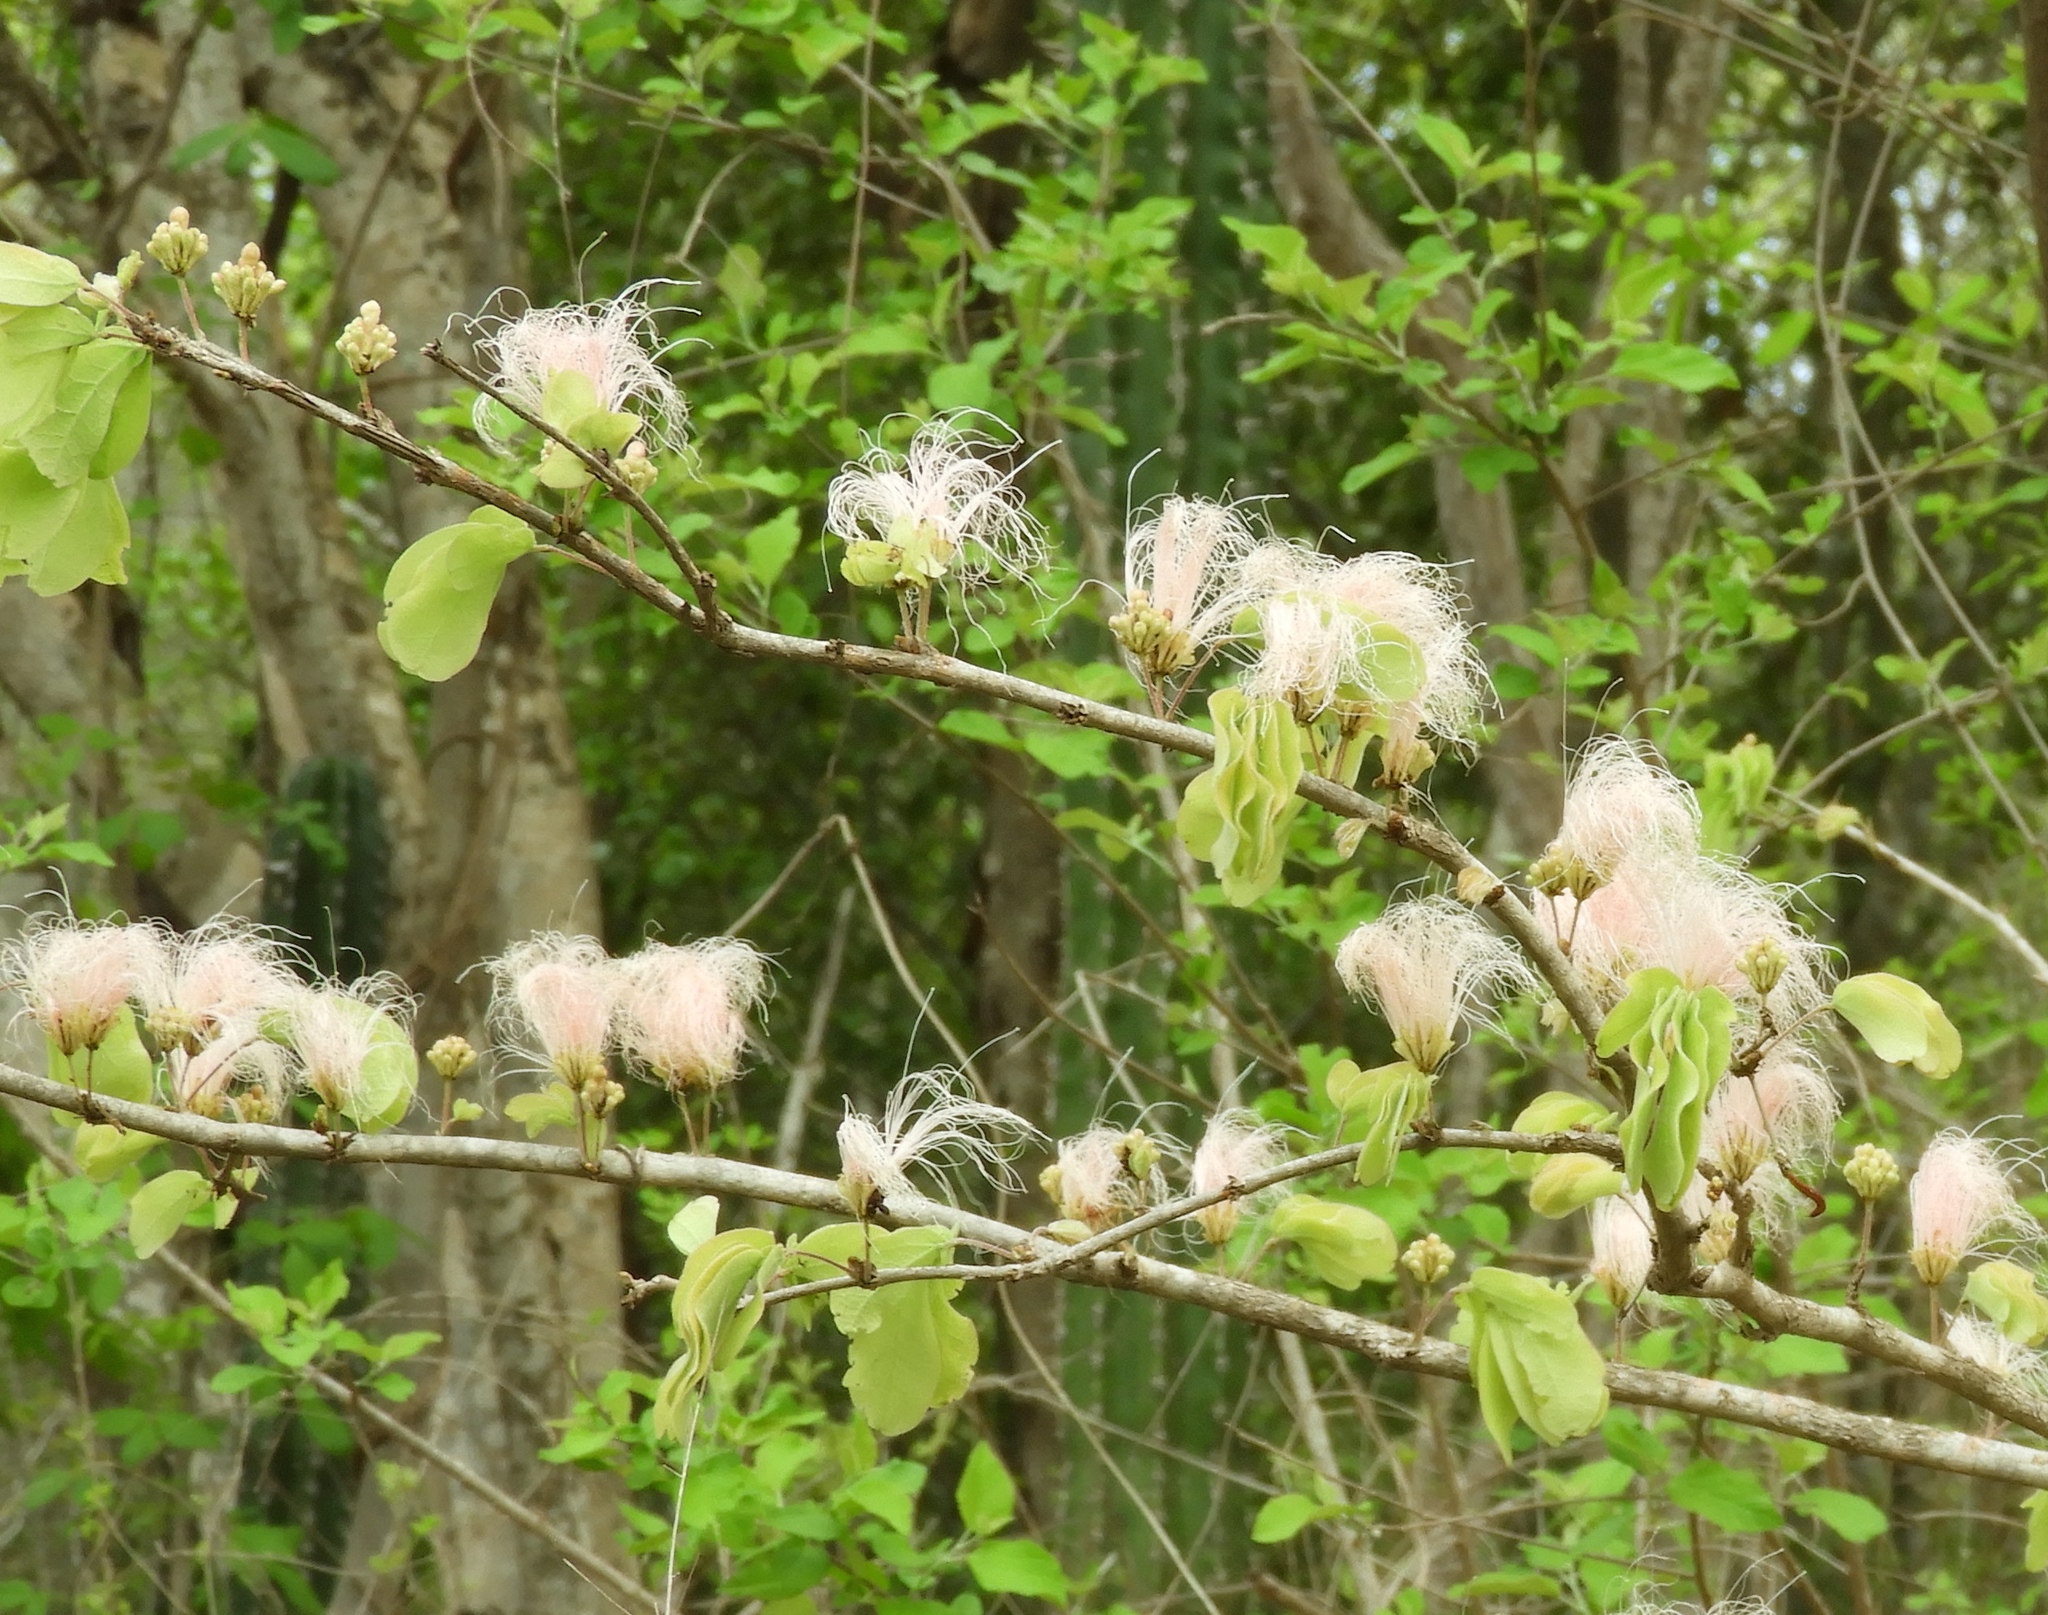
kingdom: Plantae
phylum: Tracheophyta
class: Magnoliopsida
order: Fabales
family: Fabaceae
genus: Calliandra
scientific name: Calliandra
